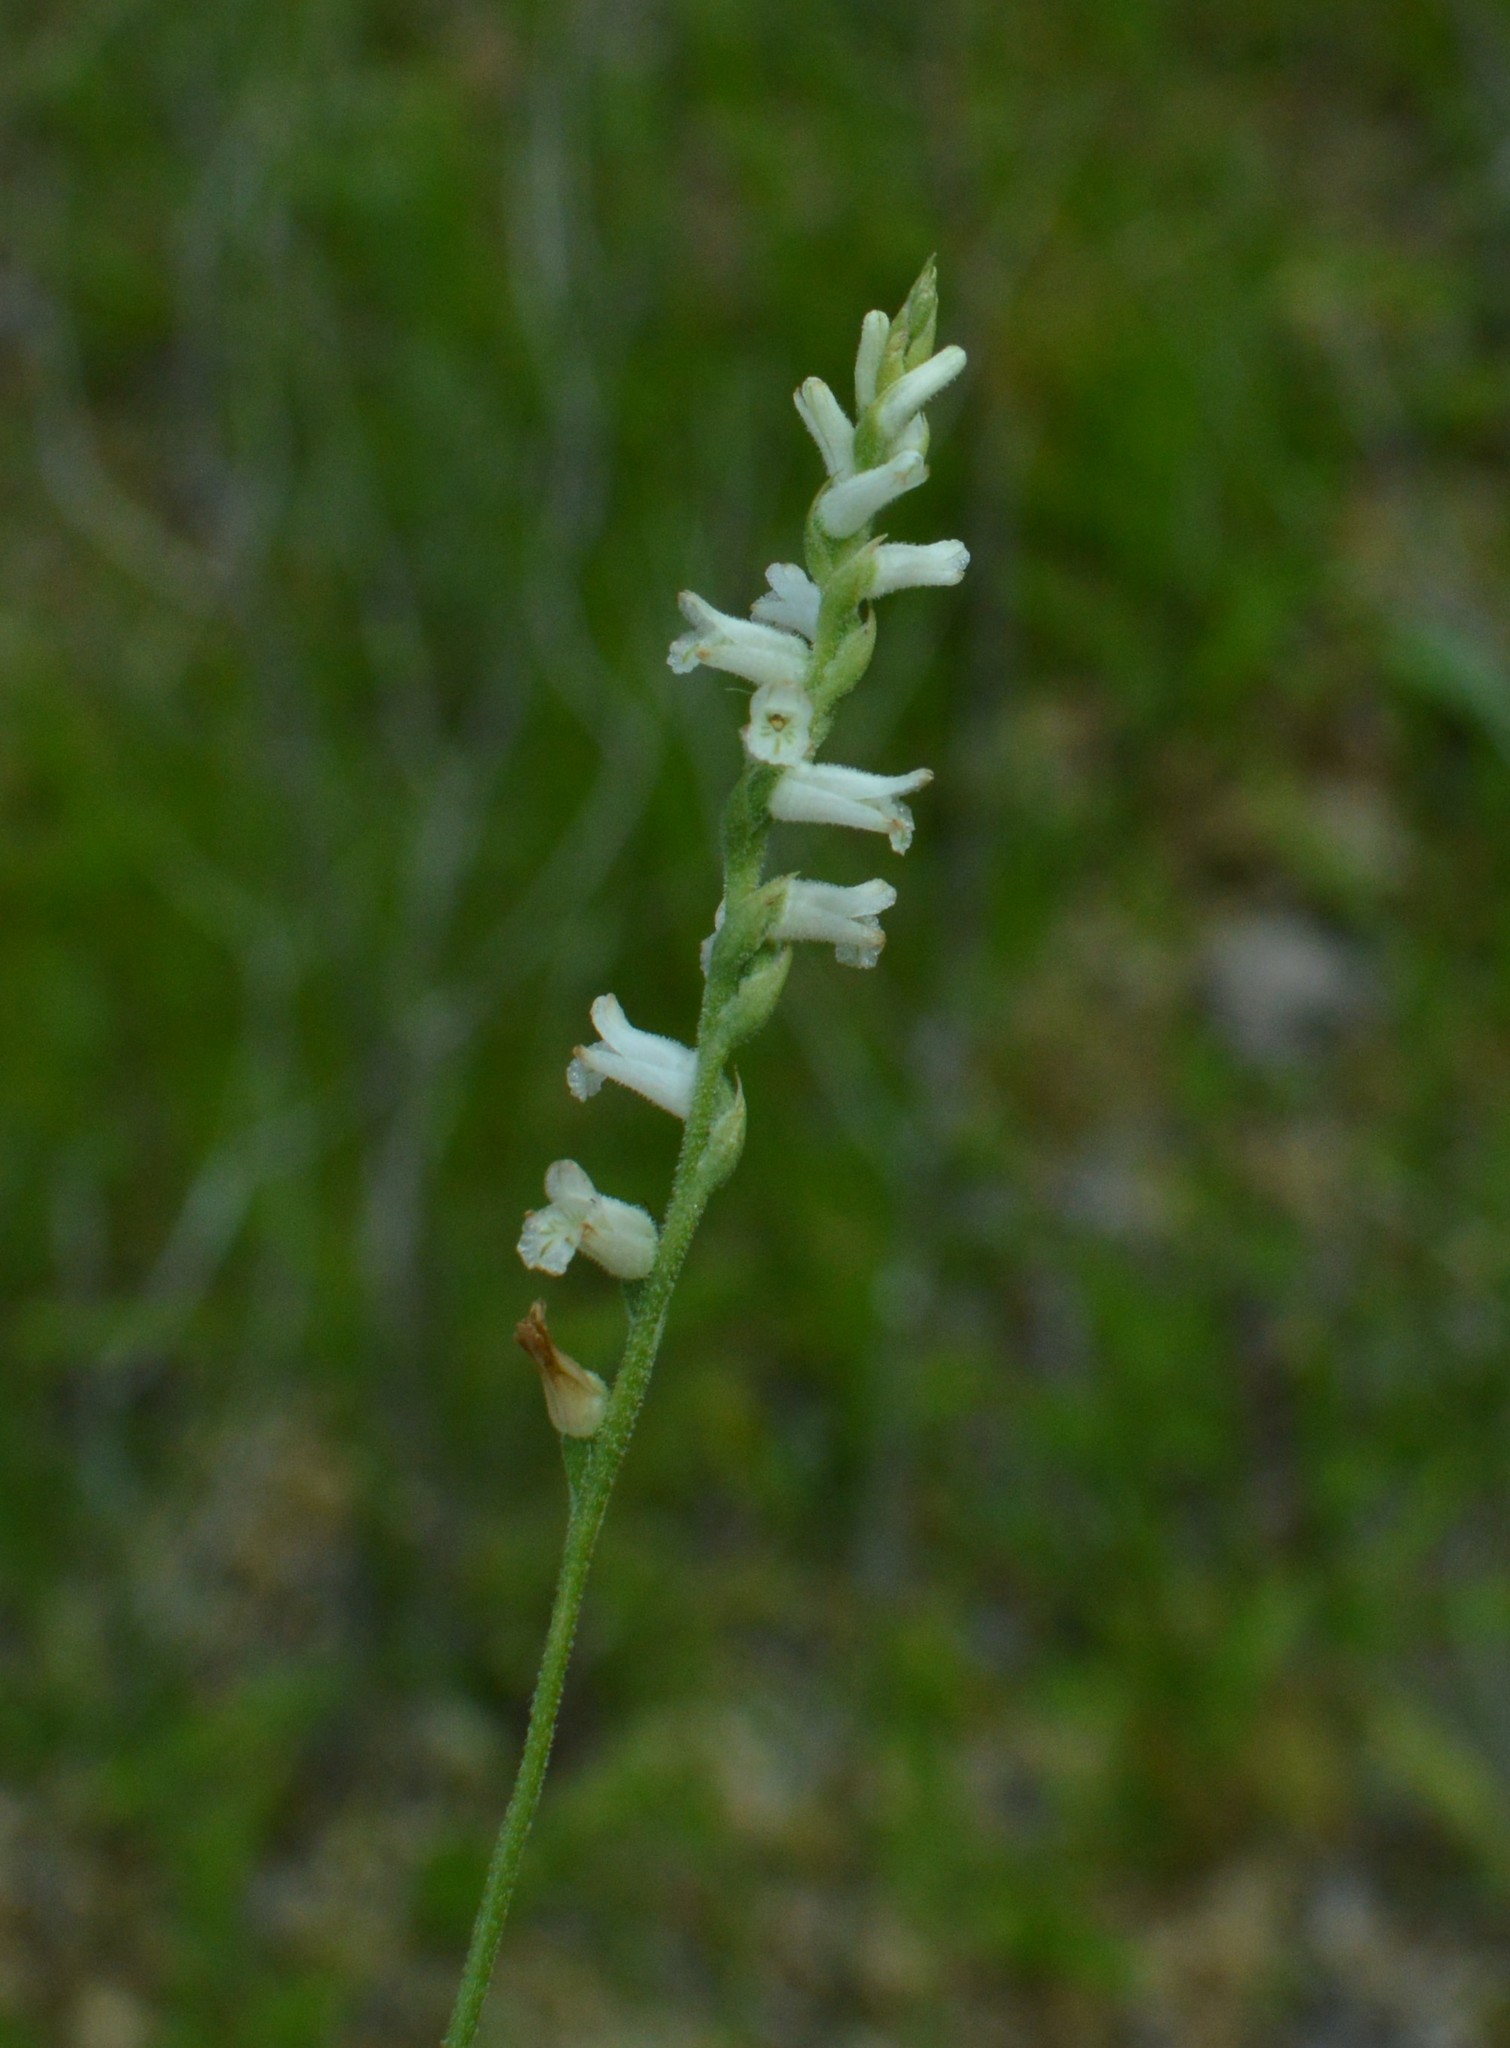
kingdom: Plantae
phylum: Tracheophyta
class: Liliopsida
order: Asparagales
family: Orchidaceae
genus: Spiranthes
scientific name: Spiranthes praecox
